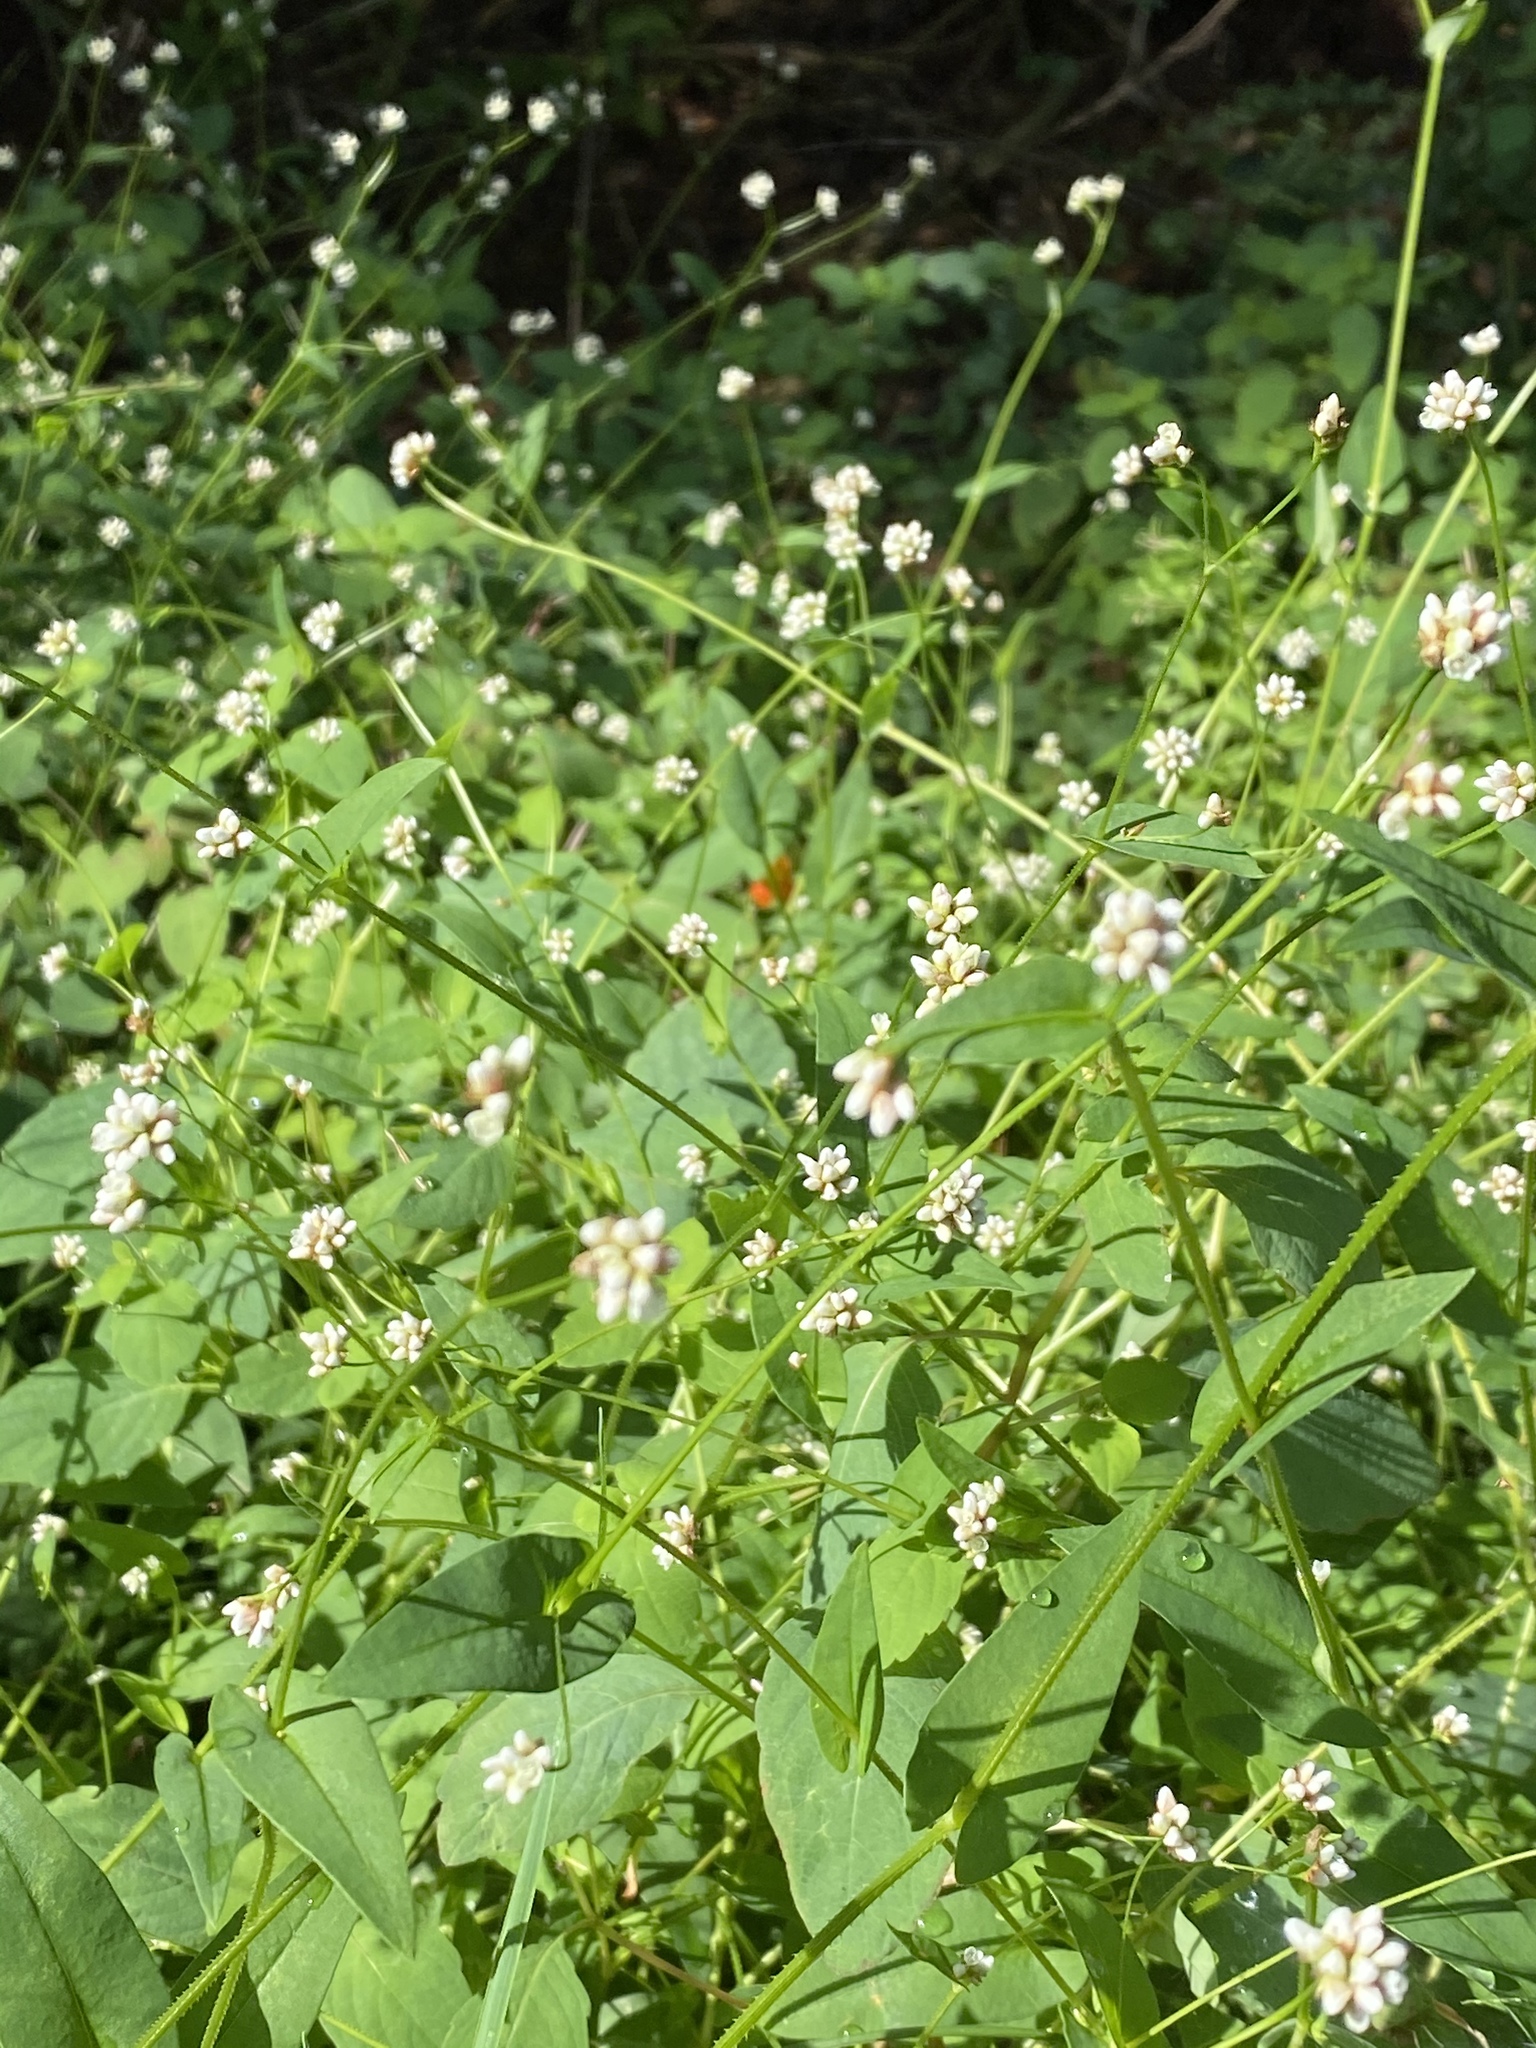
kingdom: Plantae
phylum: Tracheophyta
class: Magnoliopsida
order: Caryophyllales
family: Polygonaceae
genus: Persicaria
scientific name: Persicaria sagittata
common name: American tearthumb
